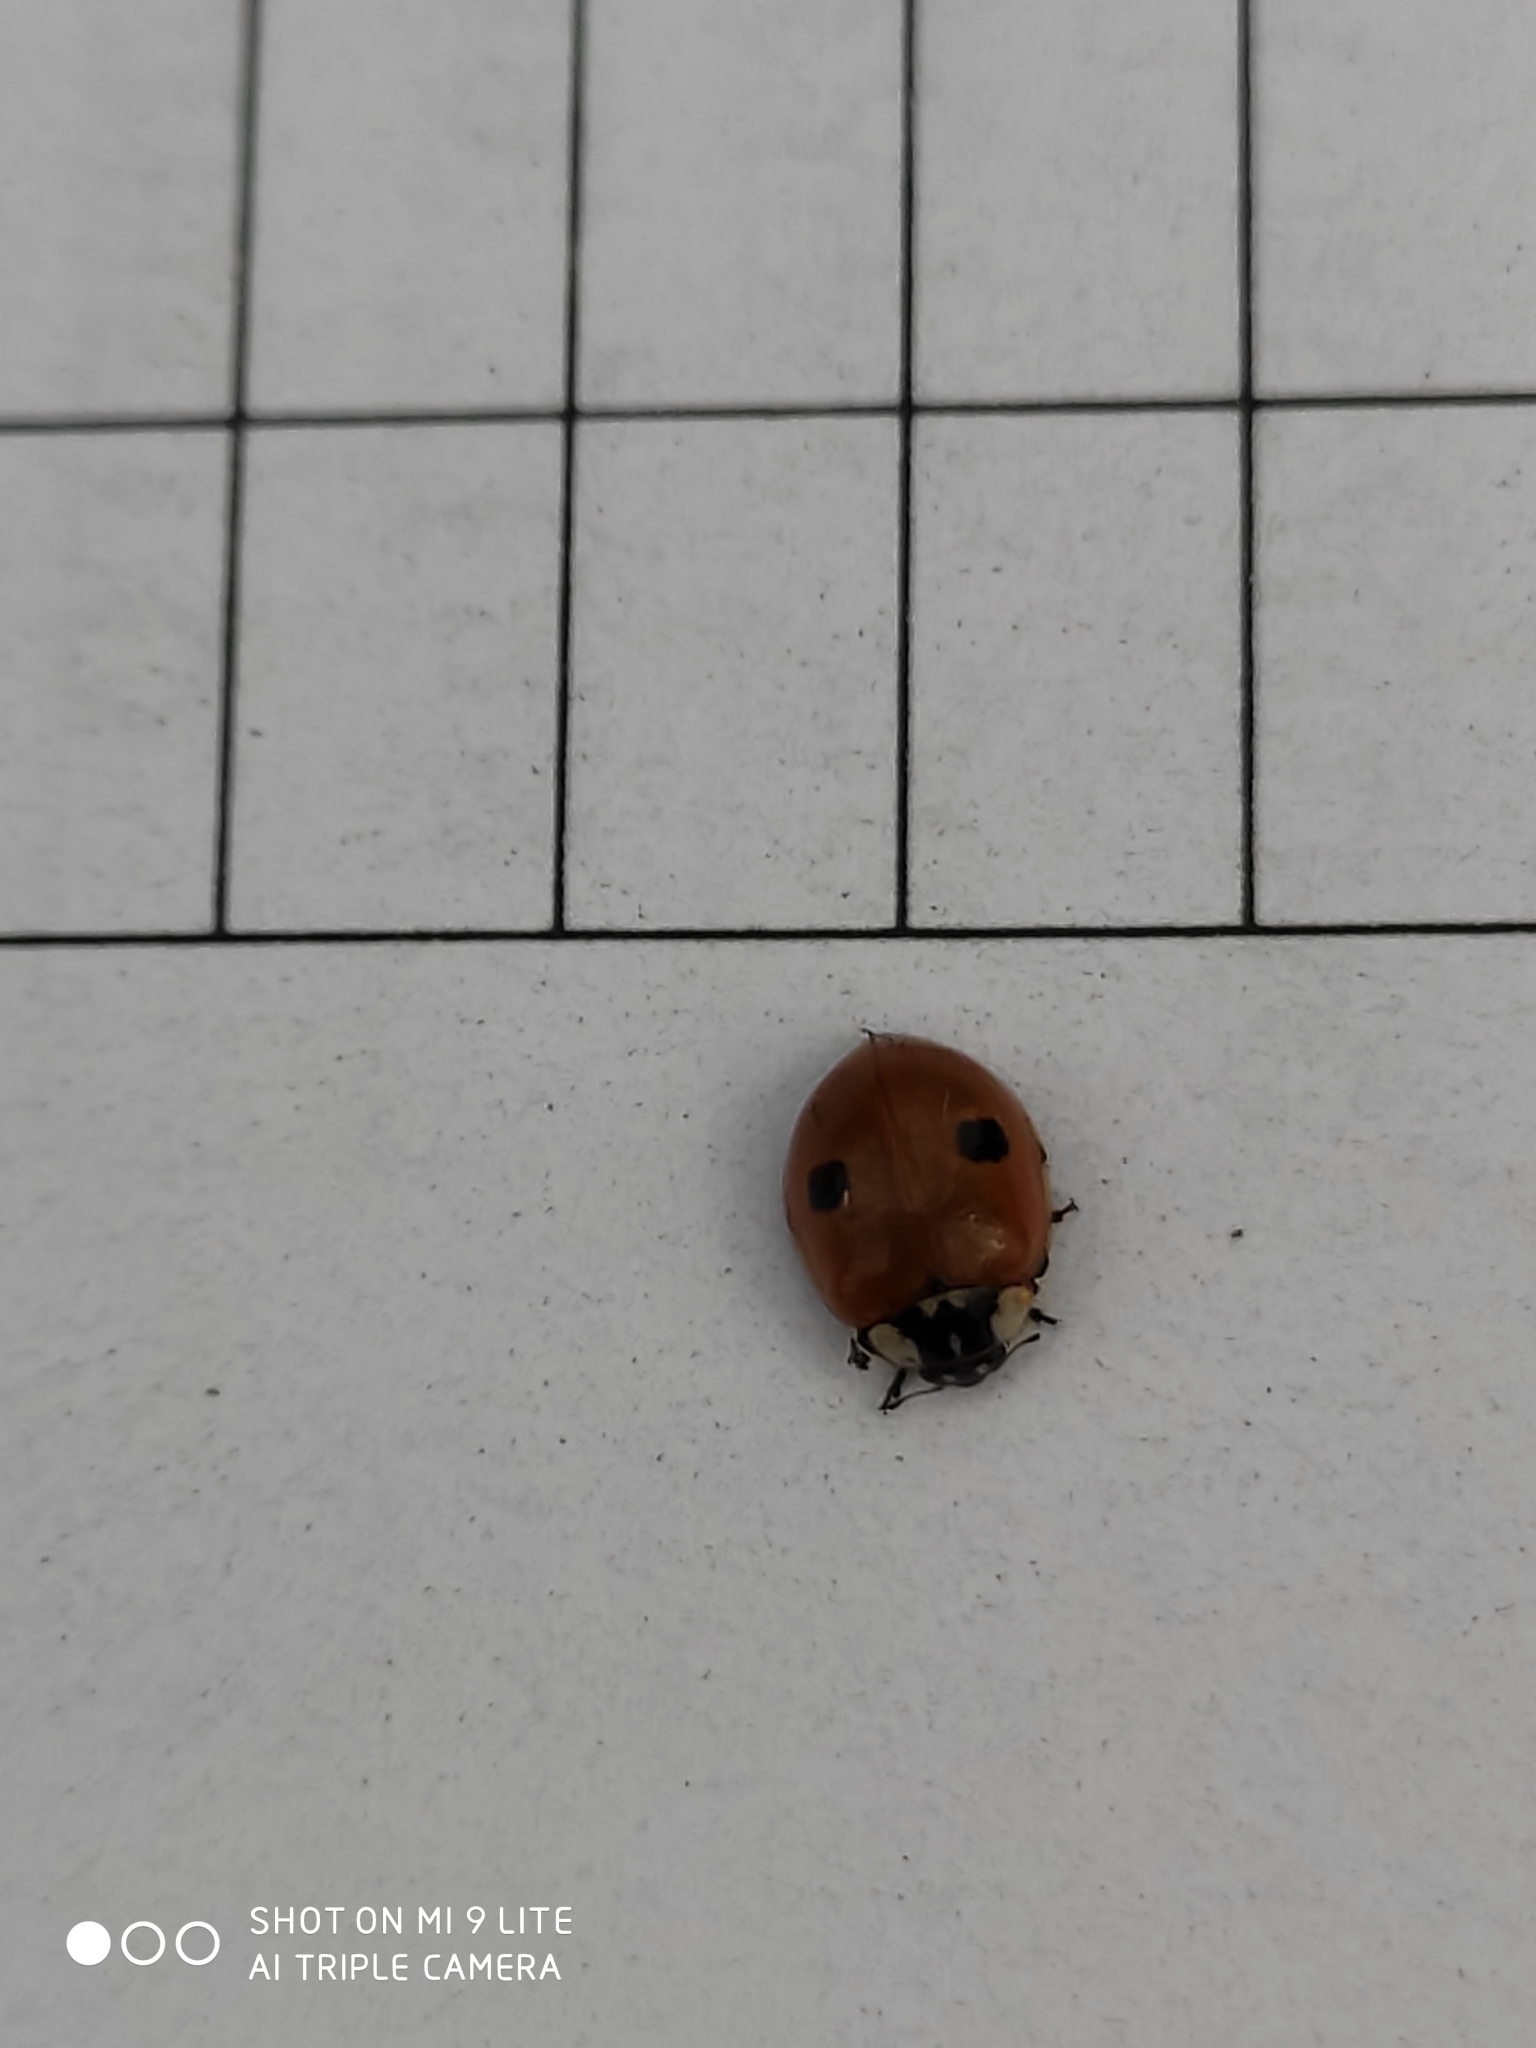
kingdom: Animalia
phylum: Arthropoda
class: Insecta
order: Coleoptera
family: Coccinellidae
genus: Adalia
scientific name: Adalia bipunctata
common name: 2-spot ladybird
